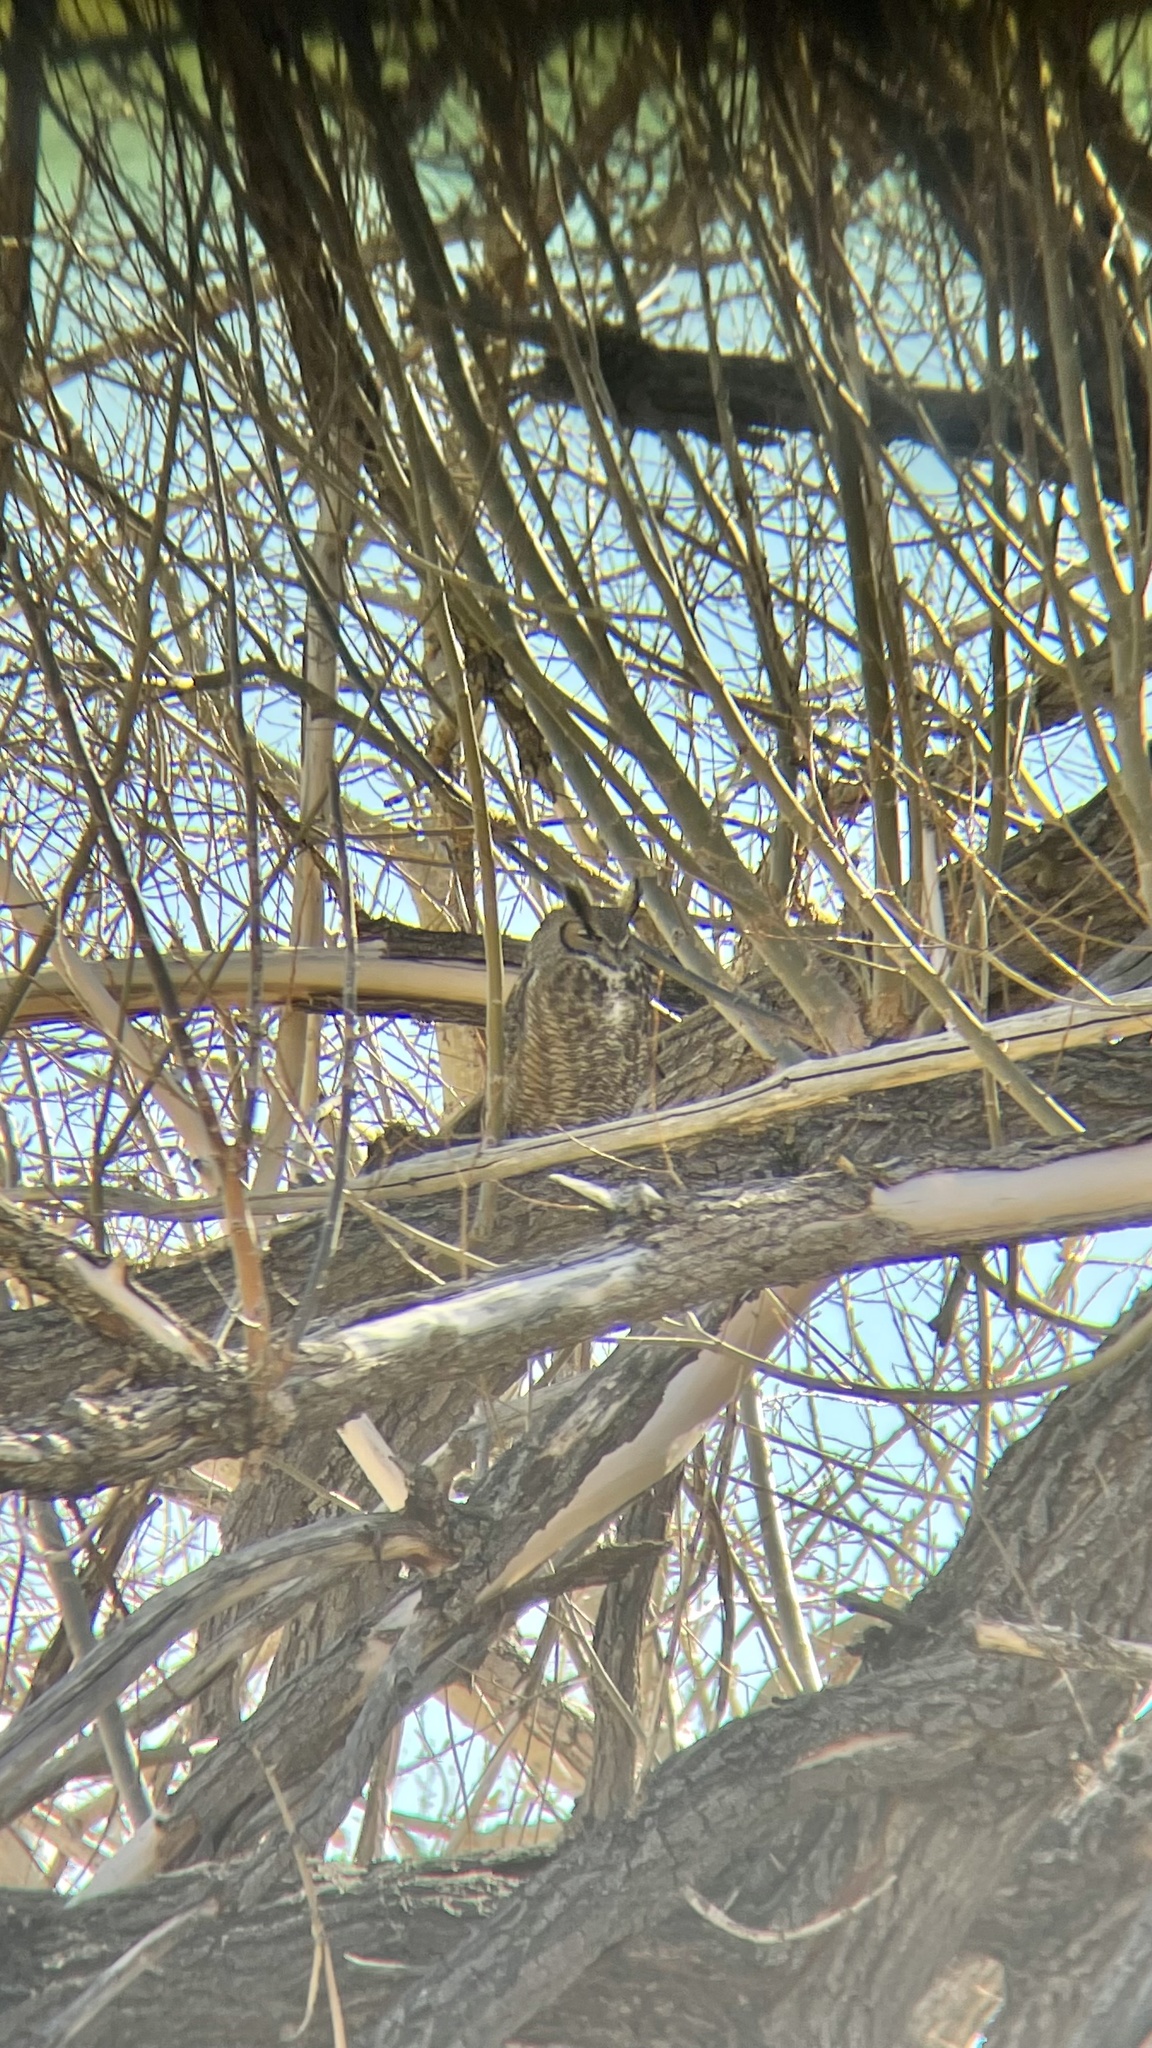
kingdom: Animalia
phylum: Chordata
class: Aves
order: Strigiformes
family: Strigidae
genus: Bubo
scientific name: Bubo virginianus
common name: Great horned owl
